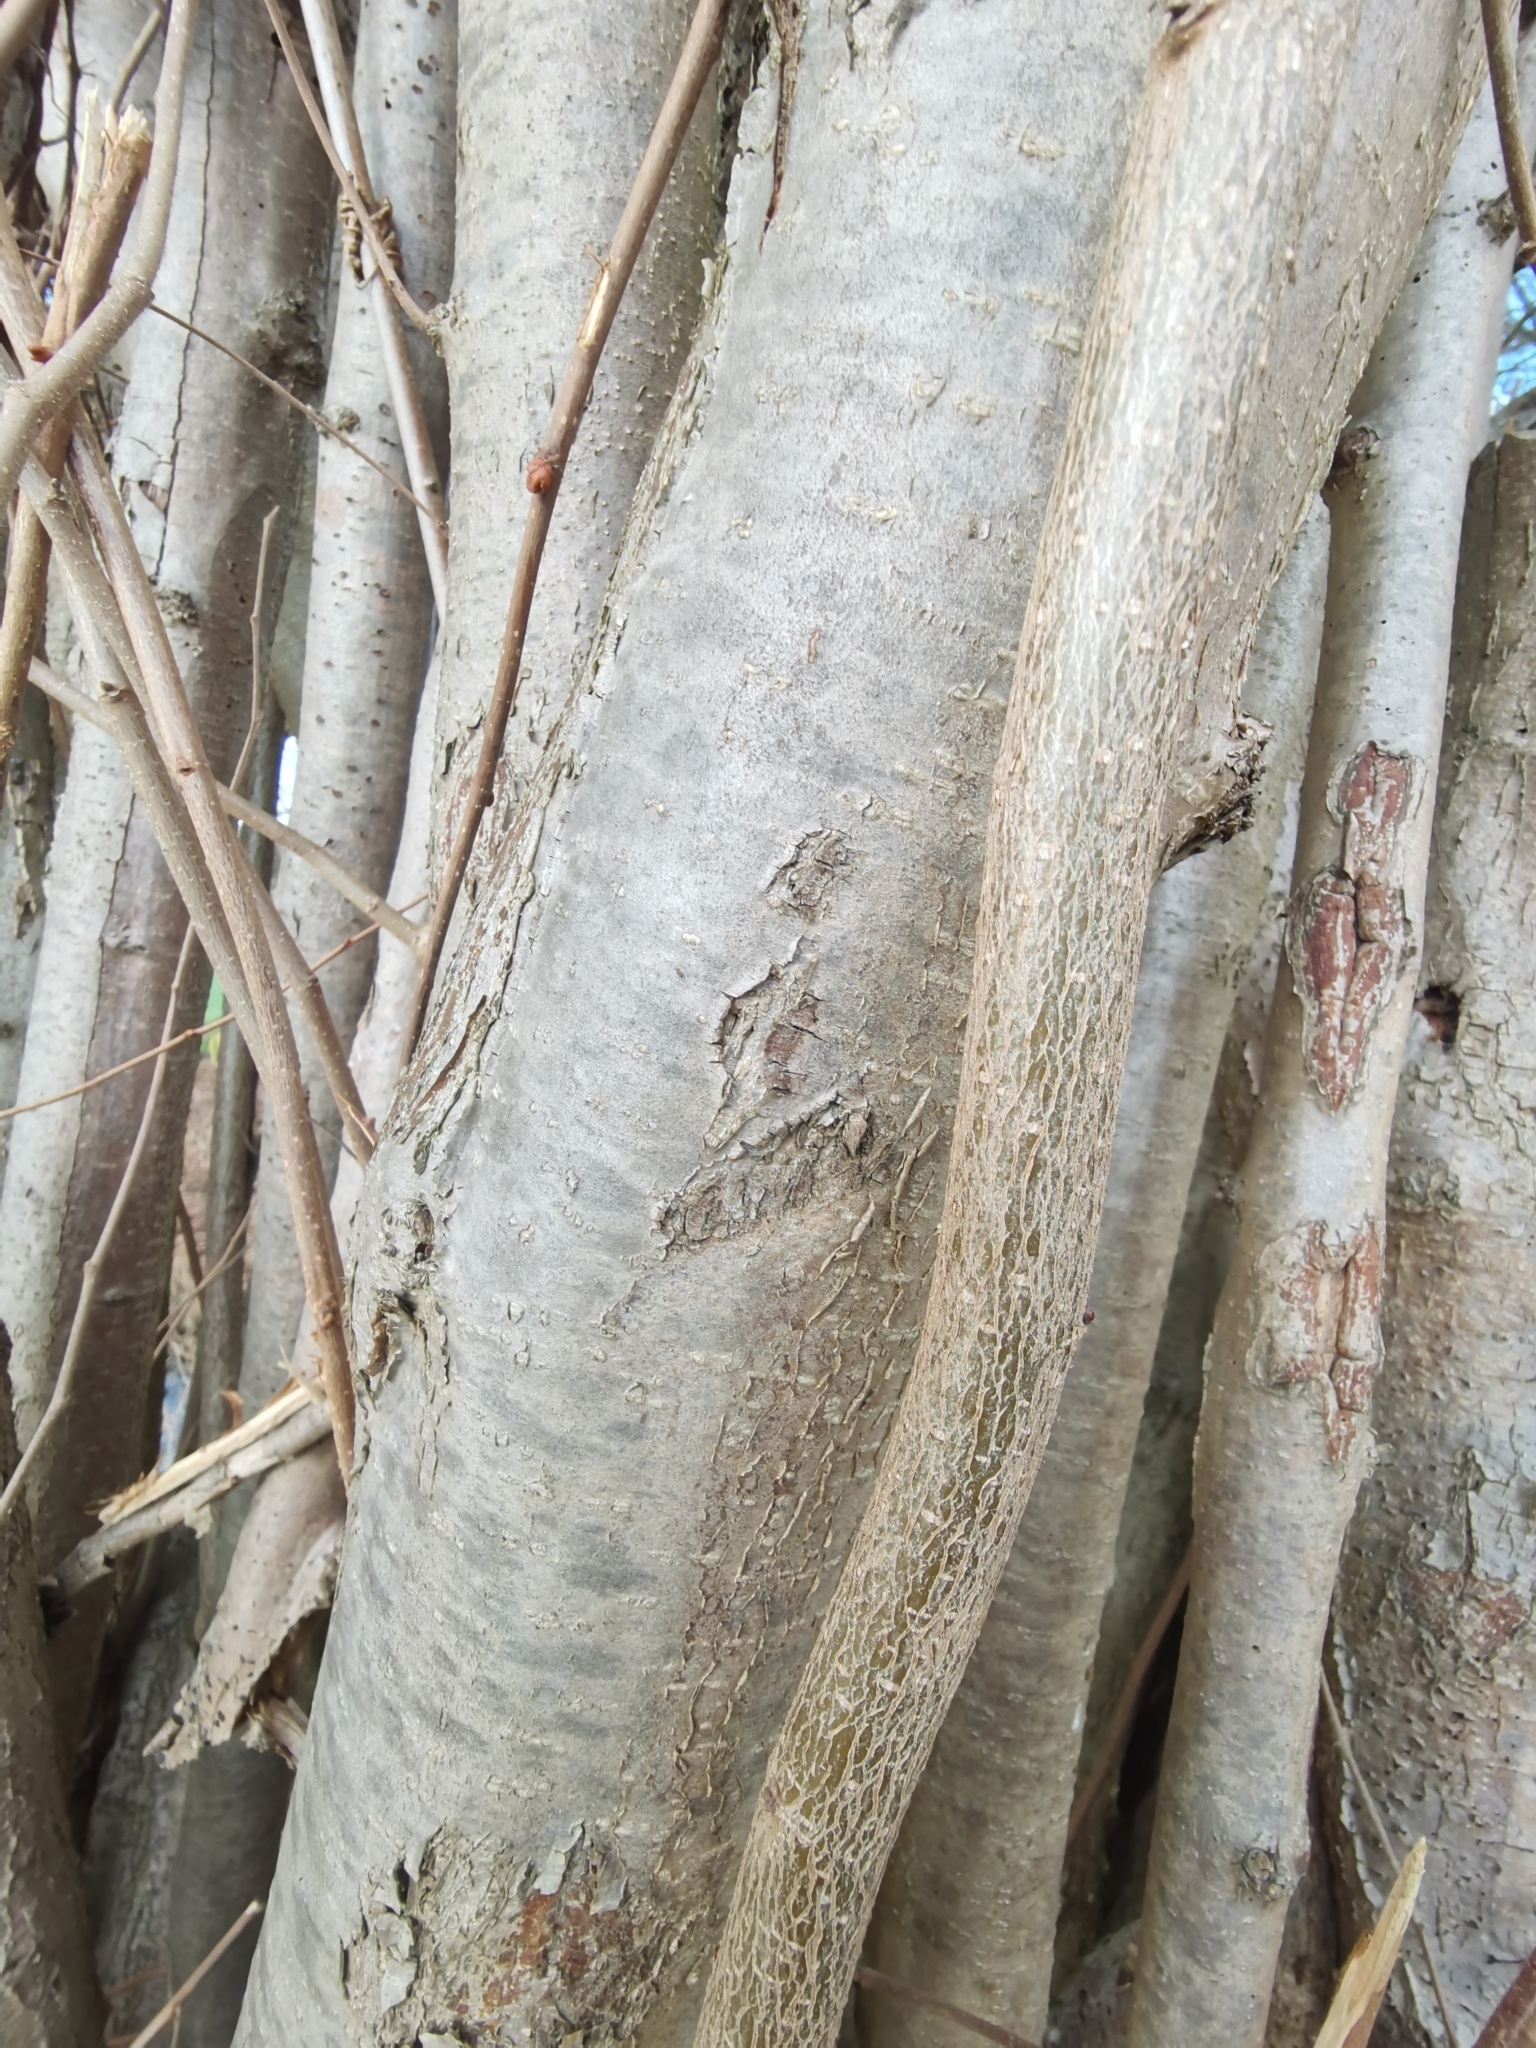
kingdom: Plantae
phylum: Tracheophyta
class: Magnoliopsida
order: Fagales
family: Betulaceae
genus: Corylus
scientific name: Corylus avellana
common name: European hazel
